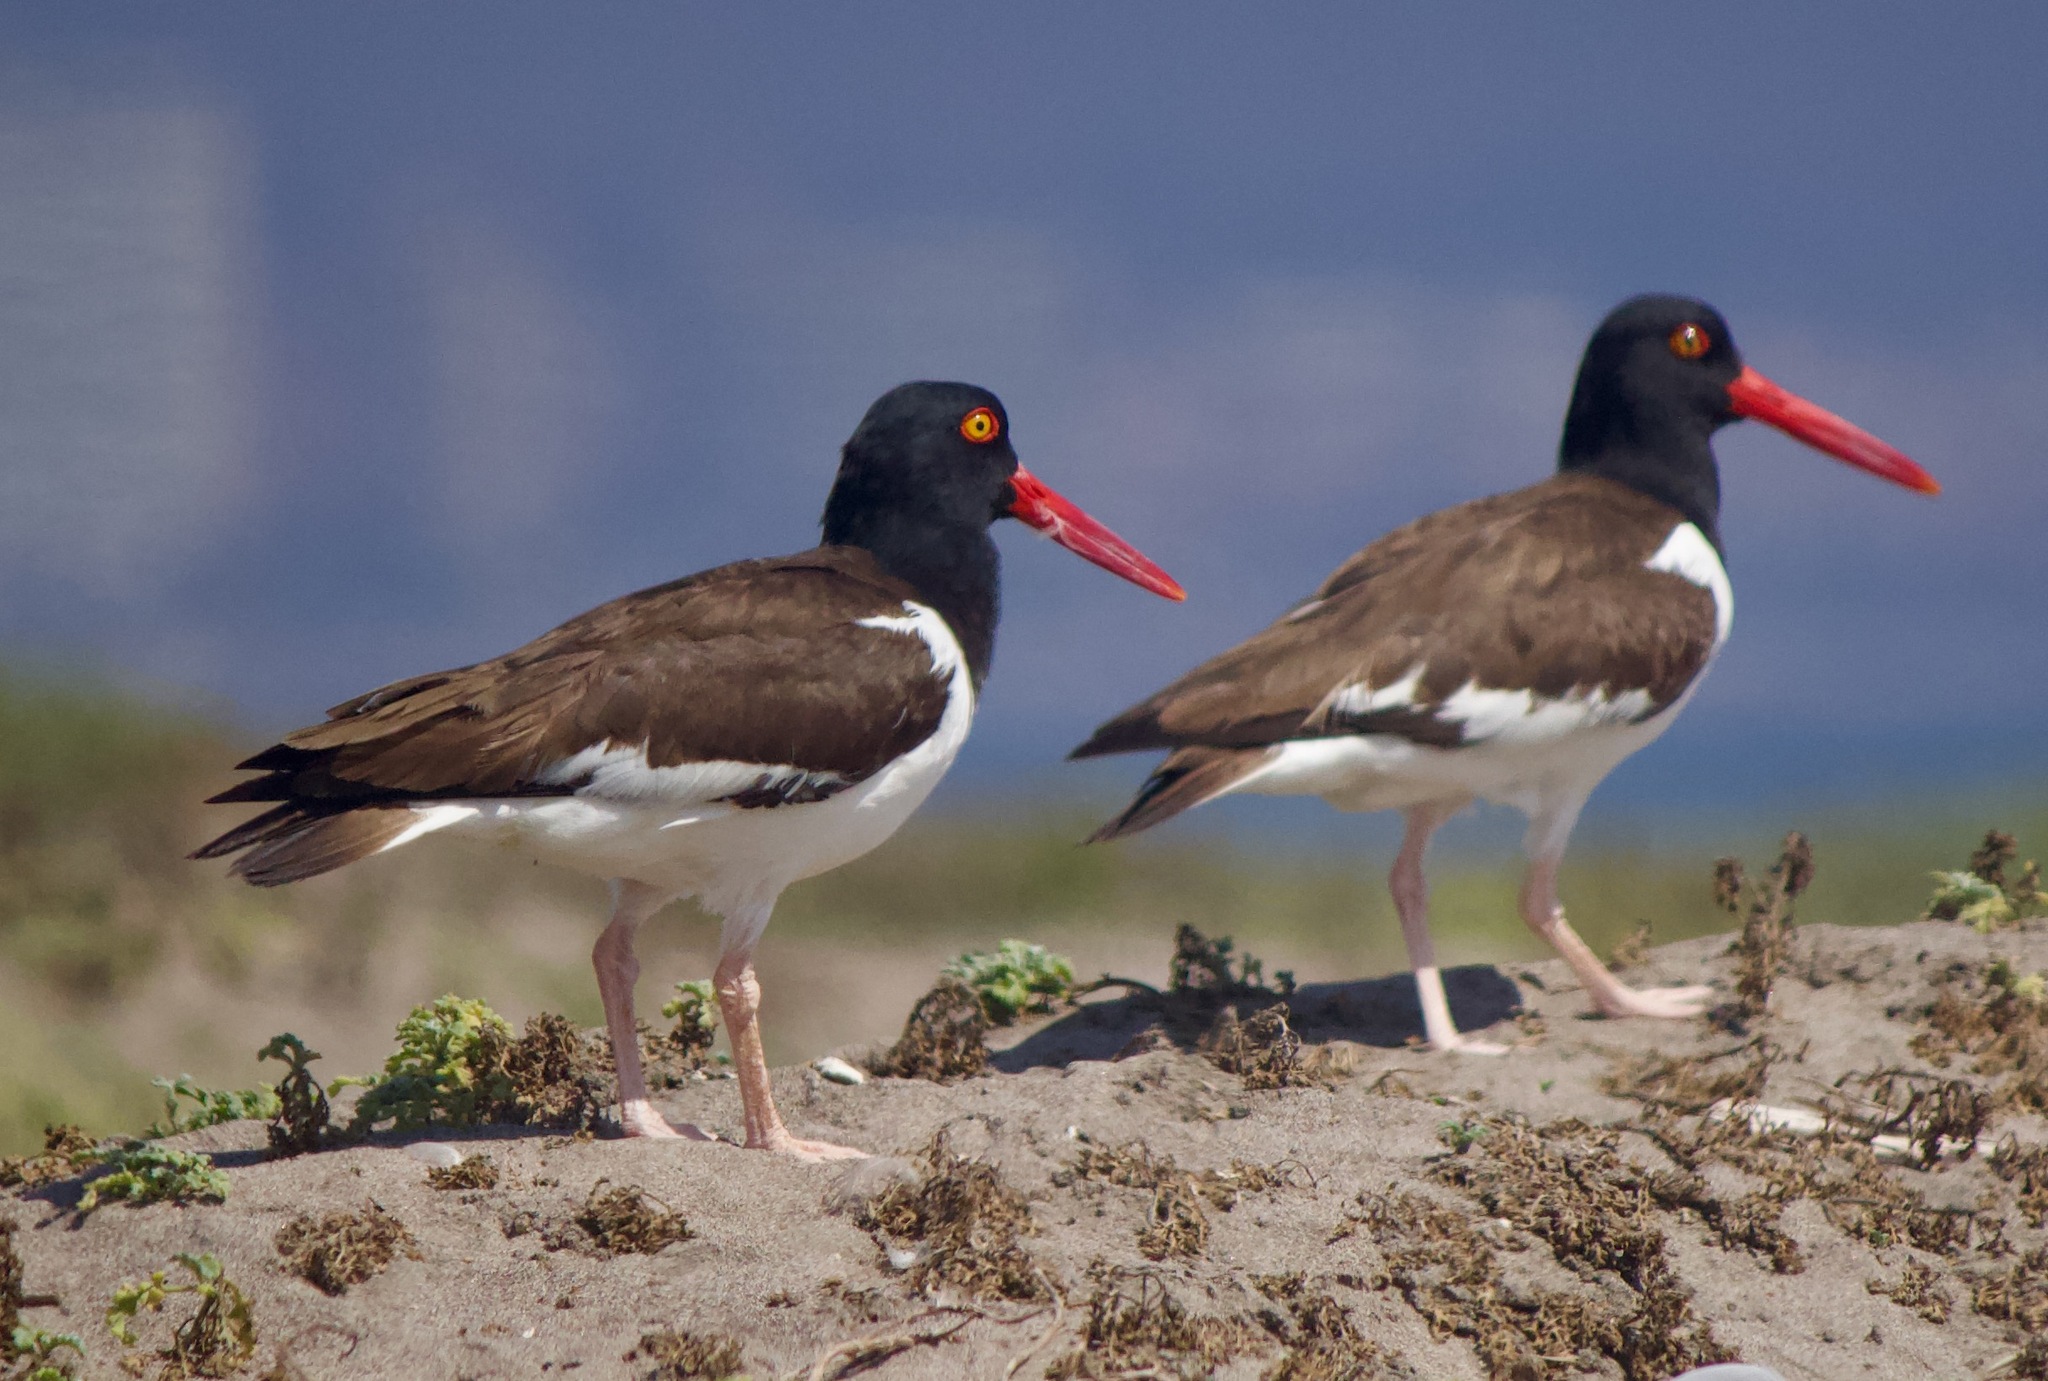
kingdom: Animalia
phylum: Chordata
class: Aves
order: Charadriiformes
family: Haematopodidae
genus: Haematopus
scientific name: Haematopus palliatus
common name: American oystercatcher
